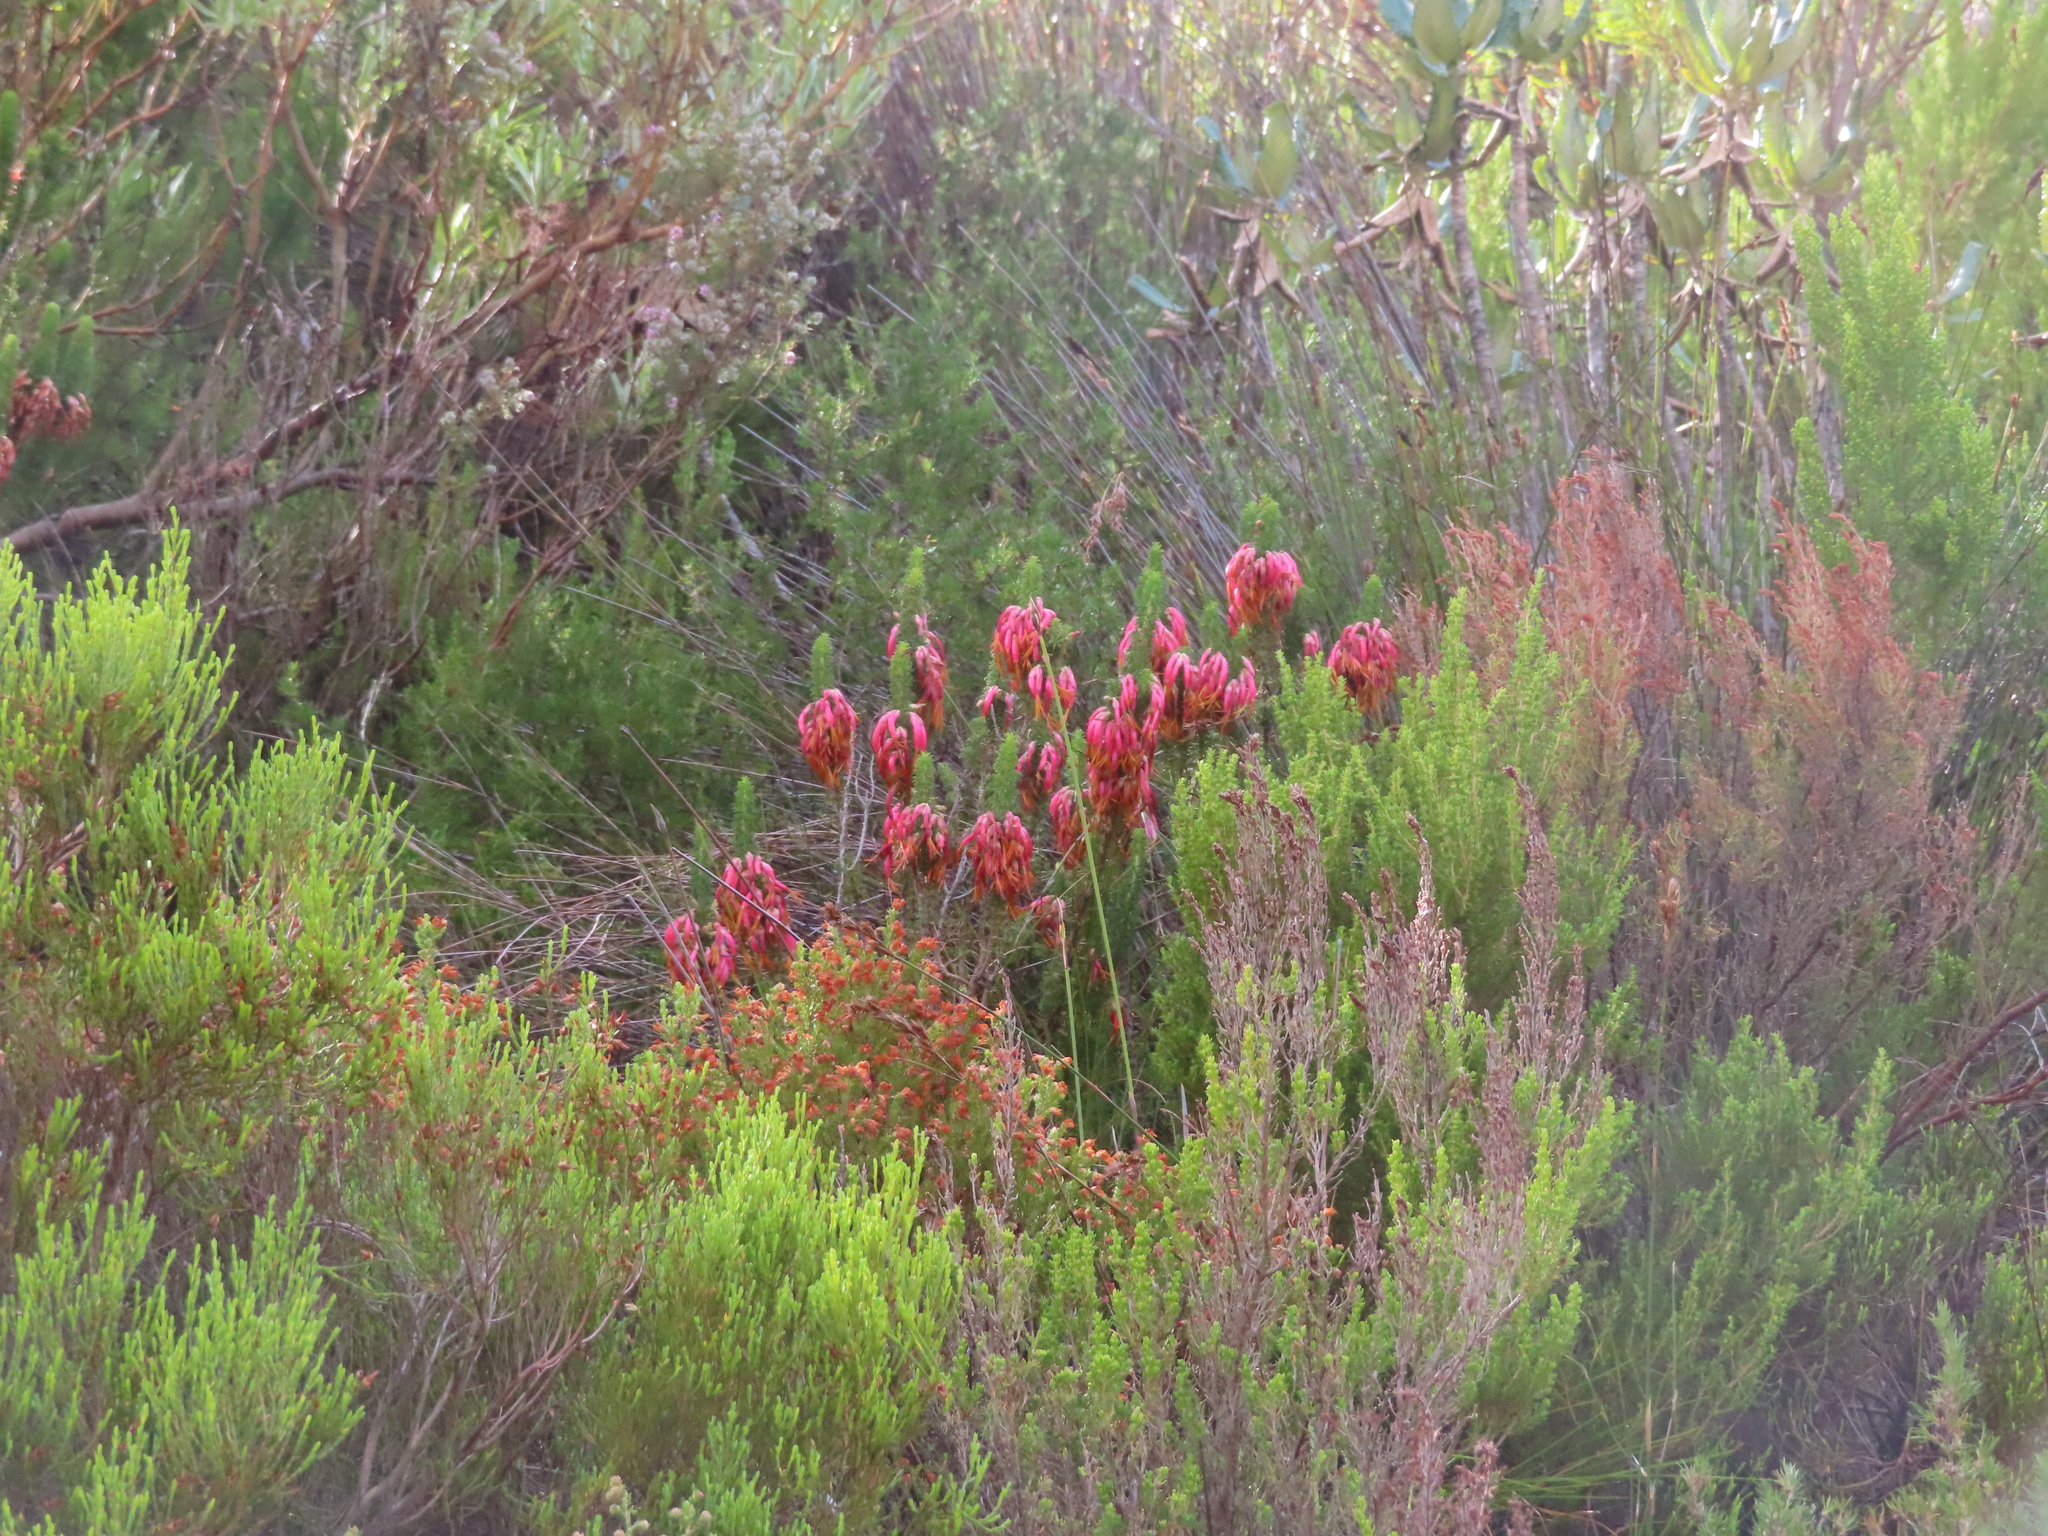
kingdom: Plantae
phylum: Tracheophyta
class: Magnoliopsida
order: Ericales
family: Ericaceae
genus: Erica
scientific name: Erica coccinea
